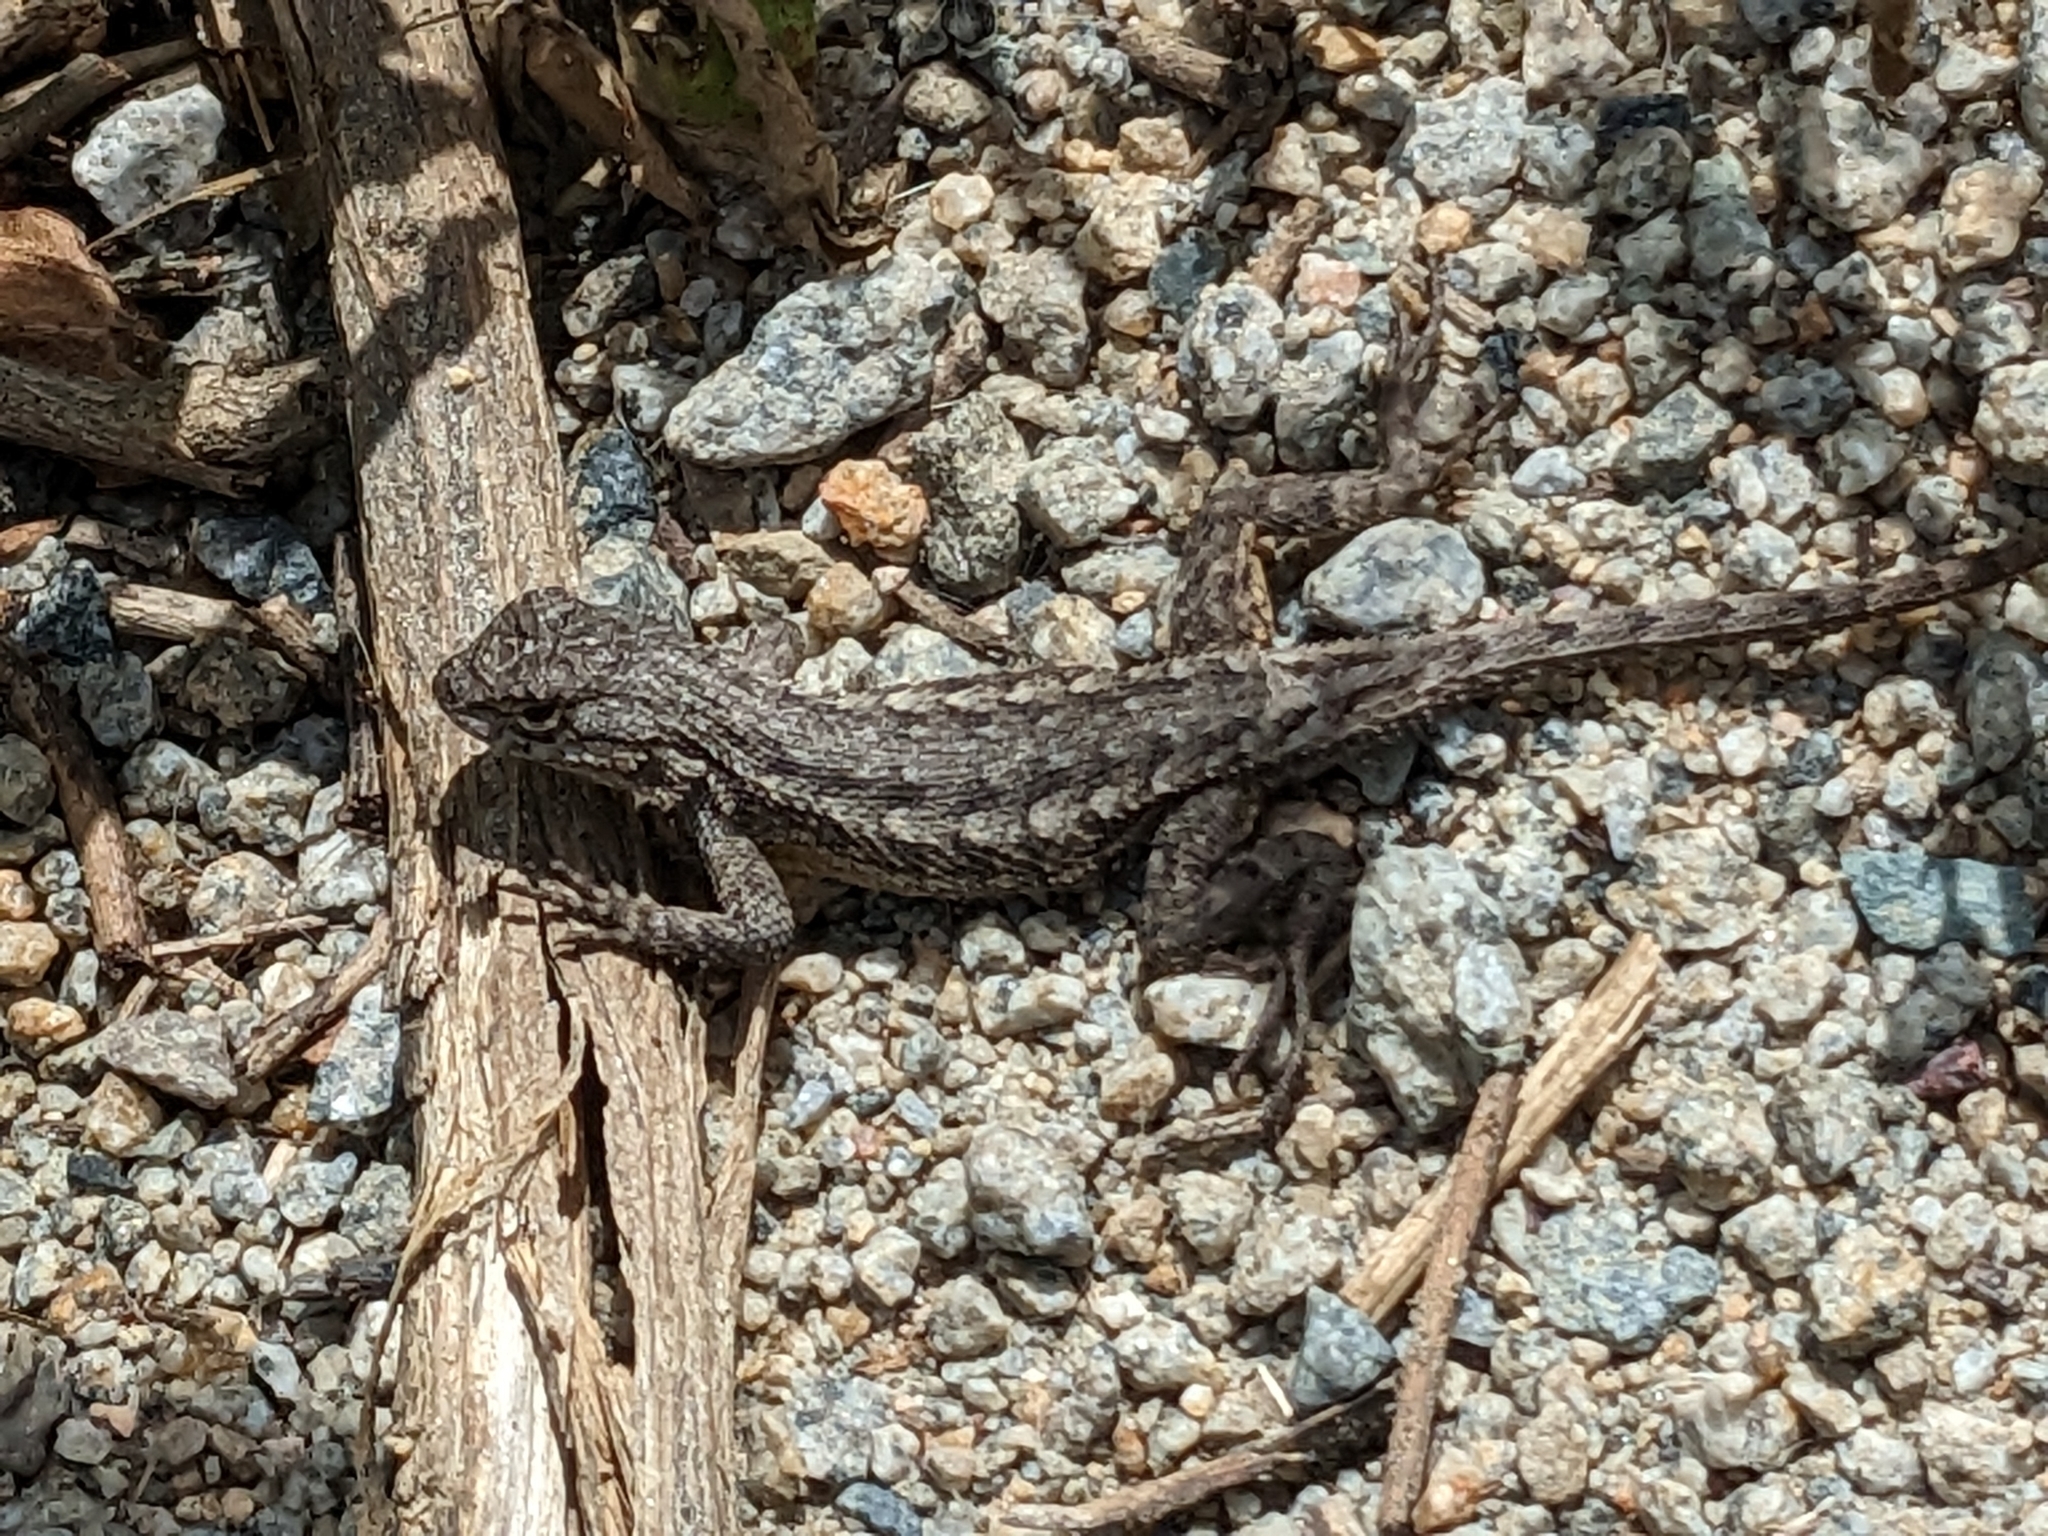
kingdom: Animalia
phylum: Chordata
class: Squamata
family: Phrynosomatidae
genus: Sceloporus
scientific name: Sceloporus occidentalis
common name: Western fence lizard
